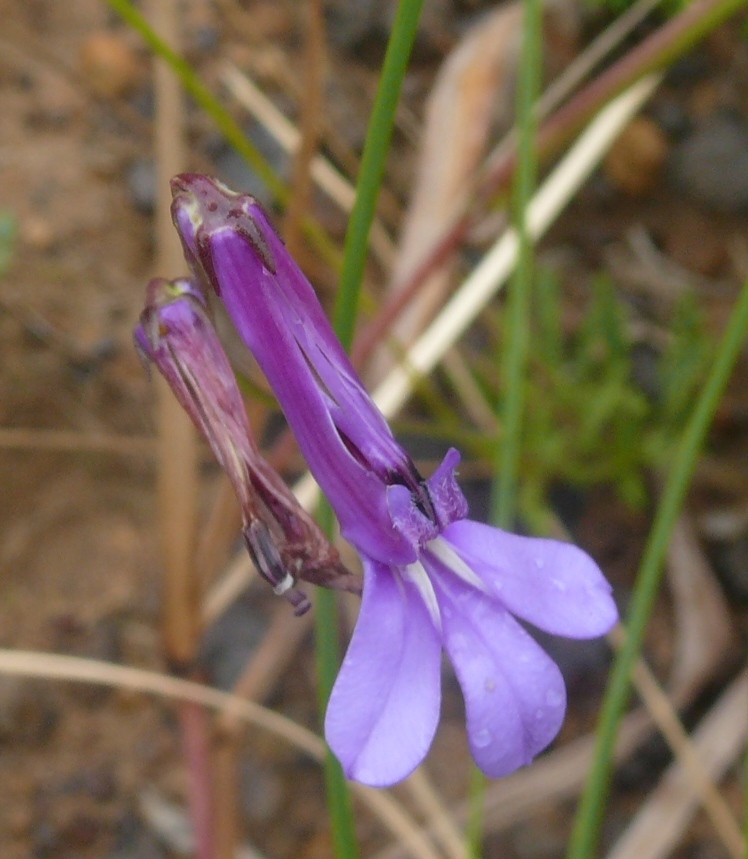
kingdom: Plantae
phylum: Tracheophyta
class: Magnoliopsida
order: Asterales
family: Campanulaceae
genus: Lobelia
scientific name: Lobelia tomentosa
